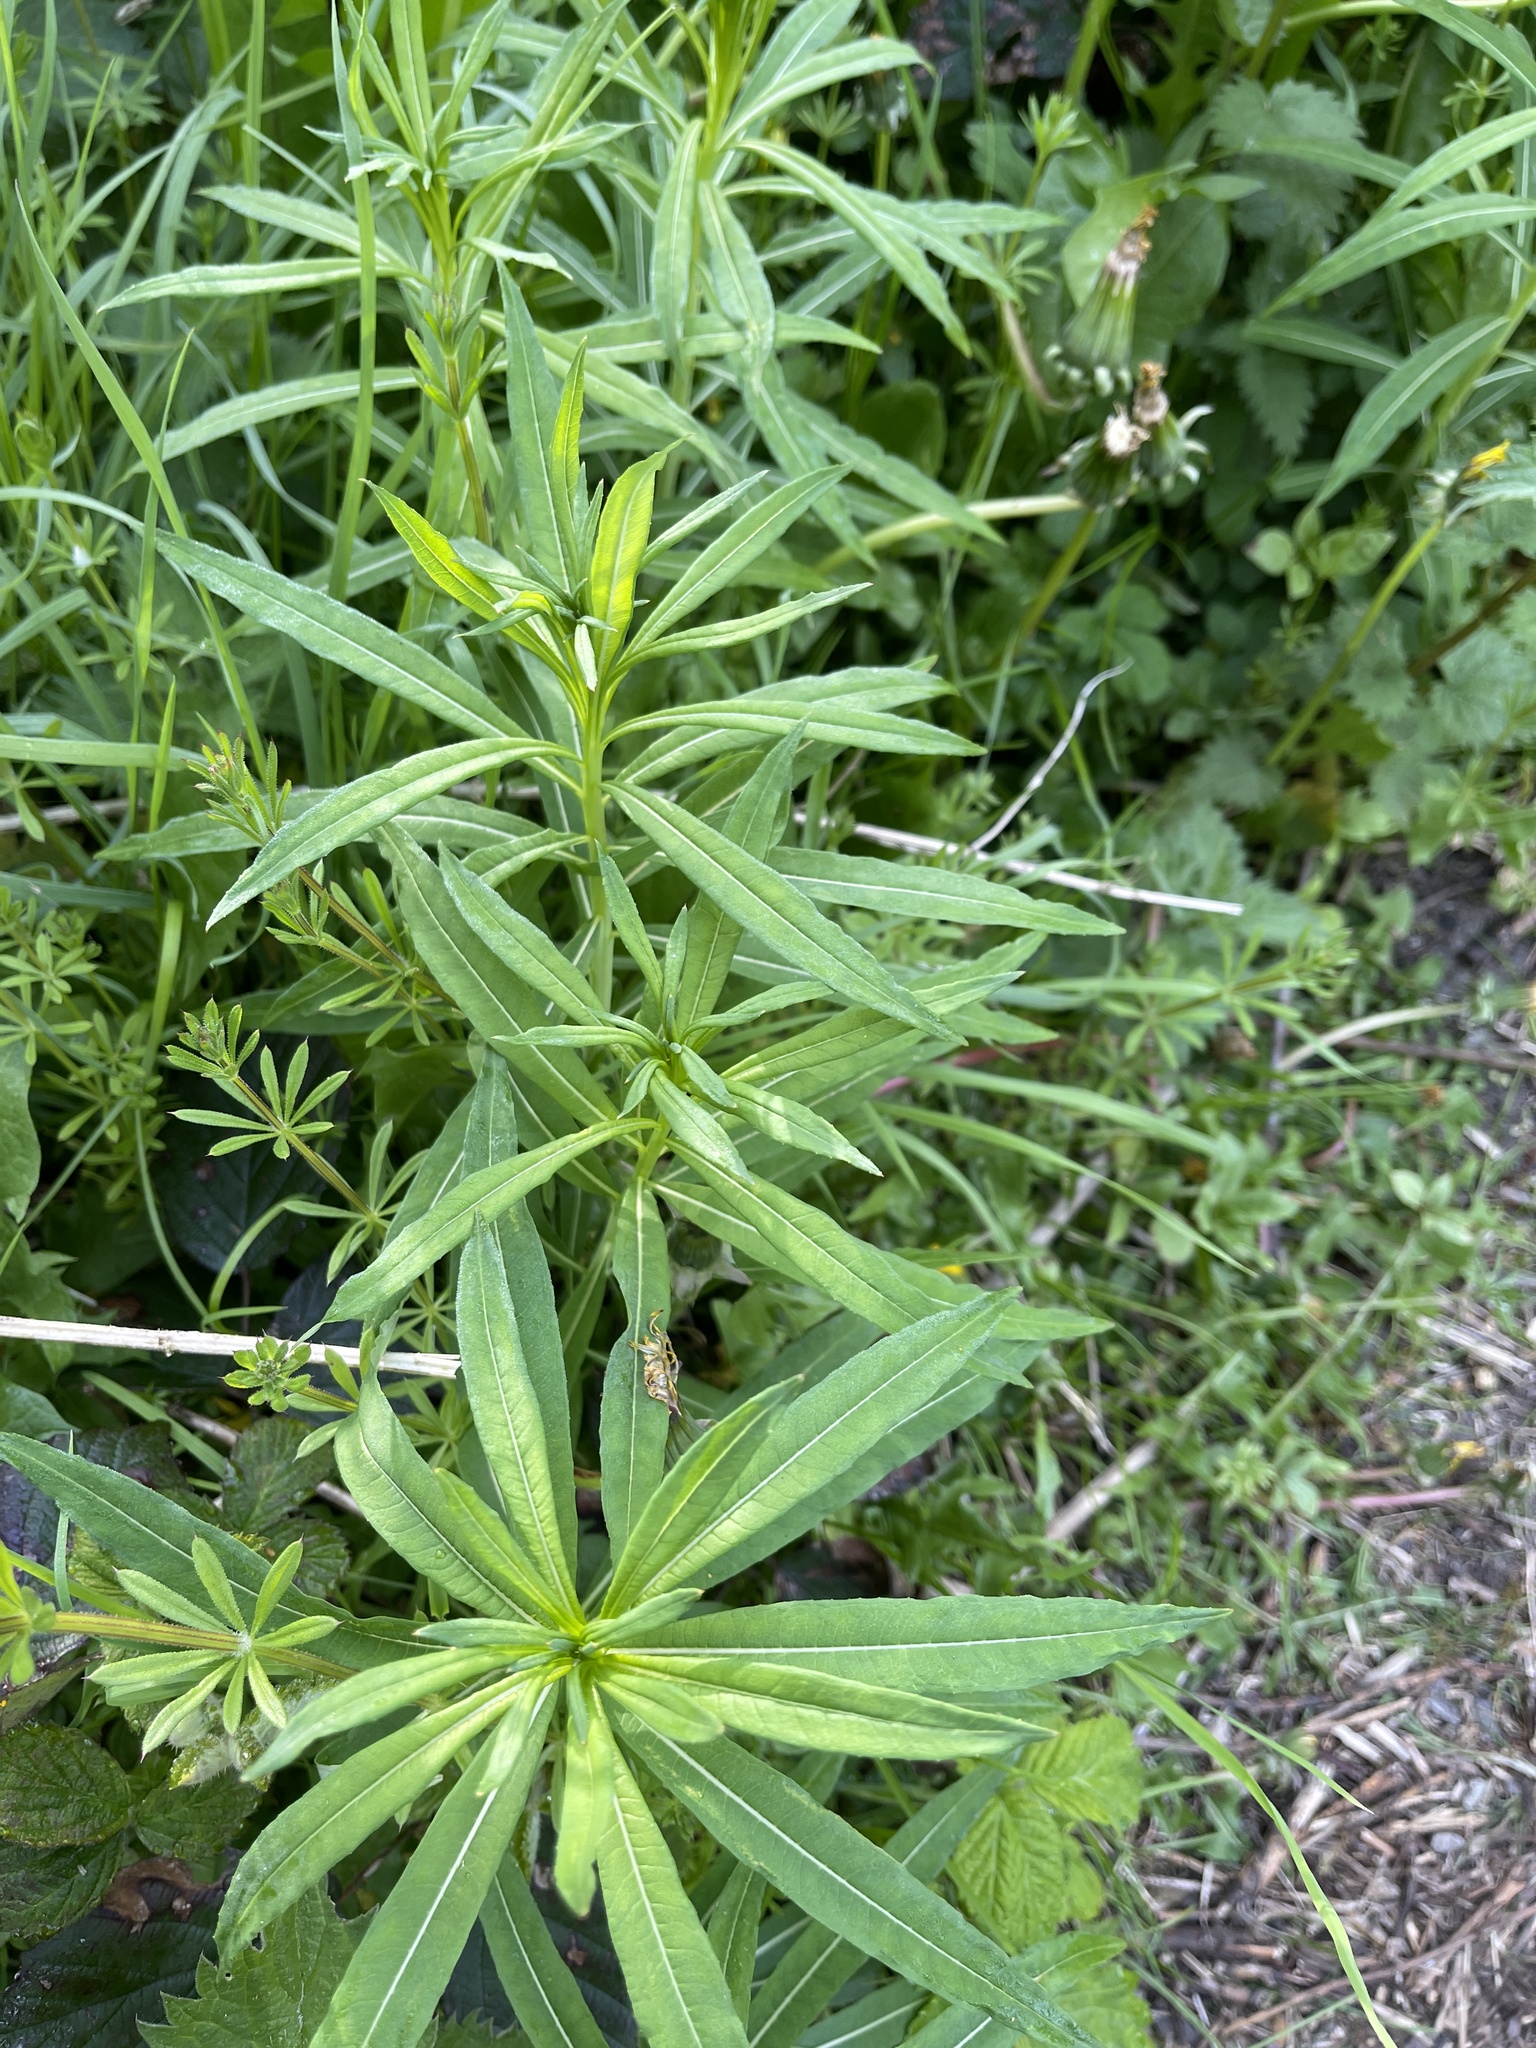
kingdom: Plantae
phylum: Tracheophyta
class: Magnoliopsida
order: Myrtales
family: Onagraceae
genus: Chamaenerion
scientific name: Chamaenerion angustifolium
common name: Fireweed
